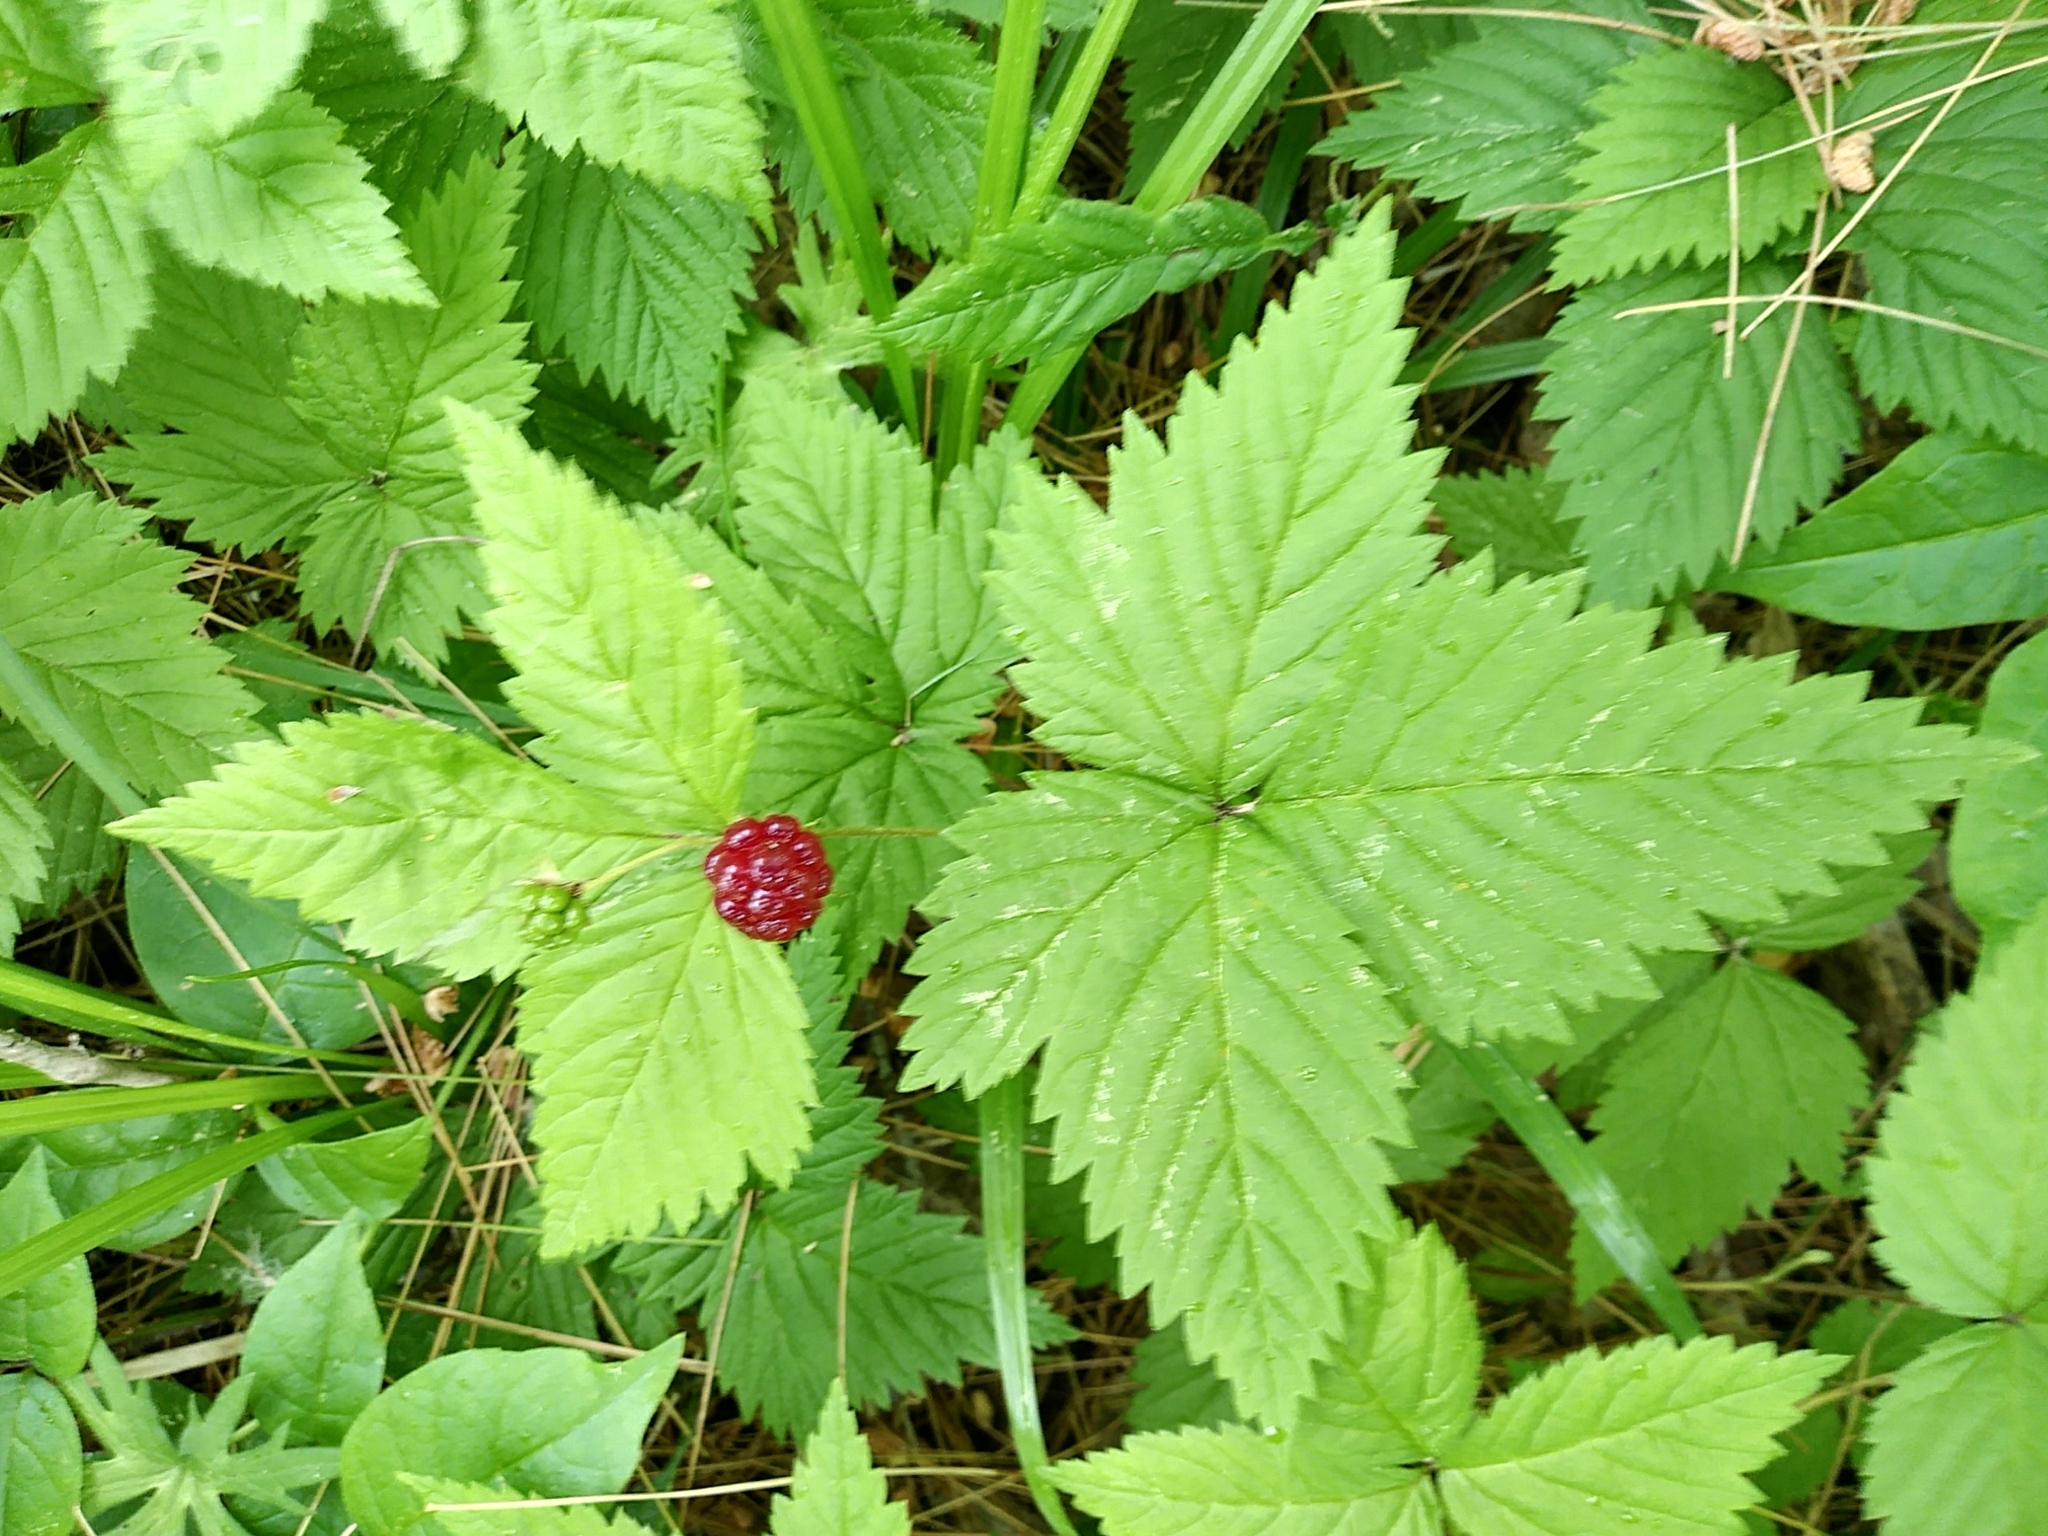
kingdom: Plantae
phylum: Tracheophyta
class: Magnoliopsida
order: Rosales
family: Rosaceae
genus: Rubus
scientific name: Rubus pubescens
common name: Dwarf raspberry
